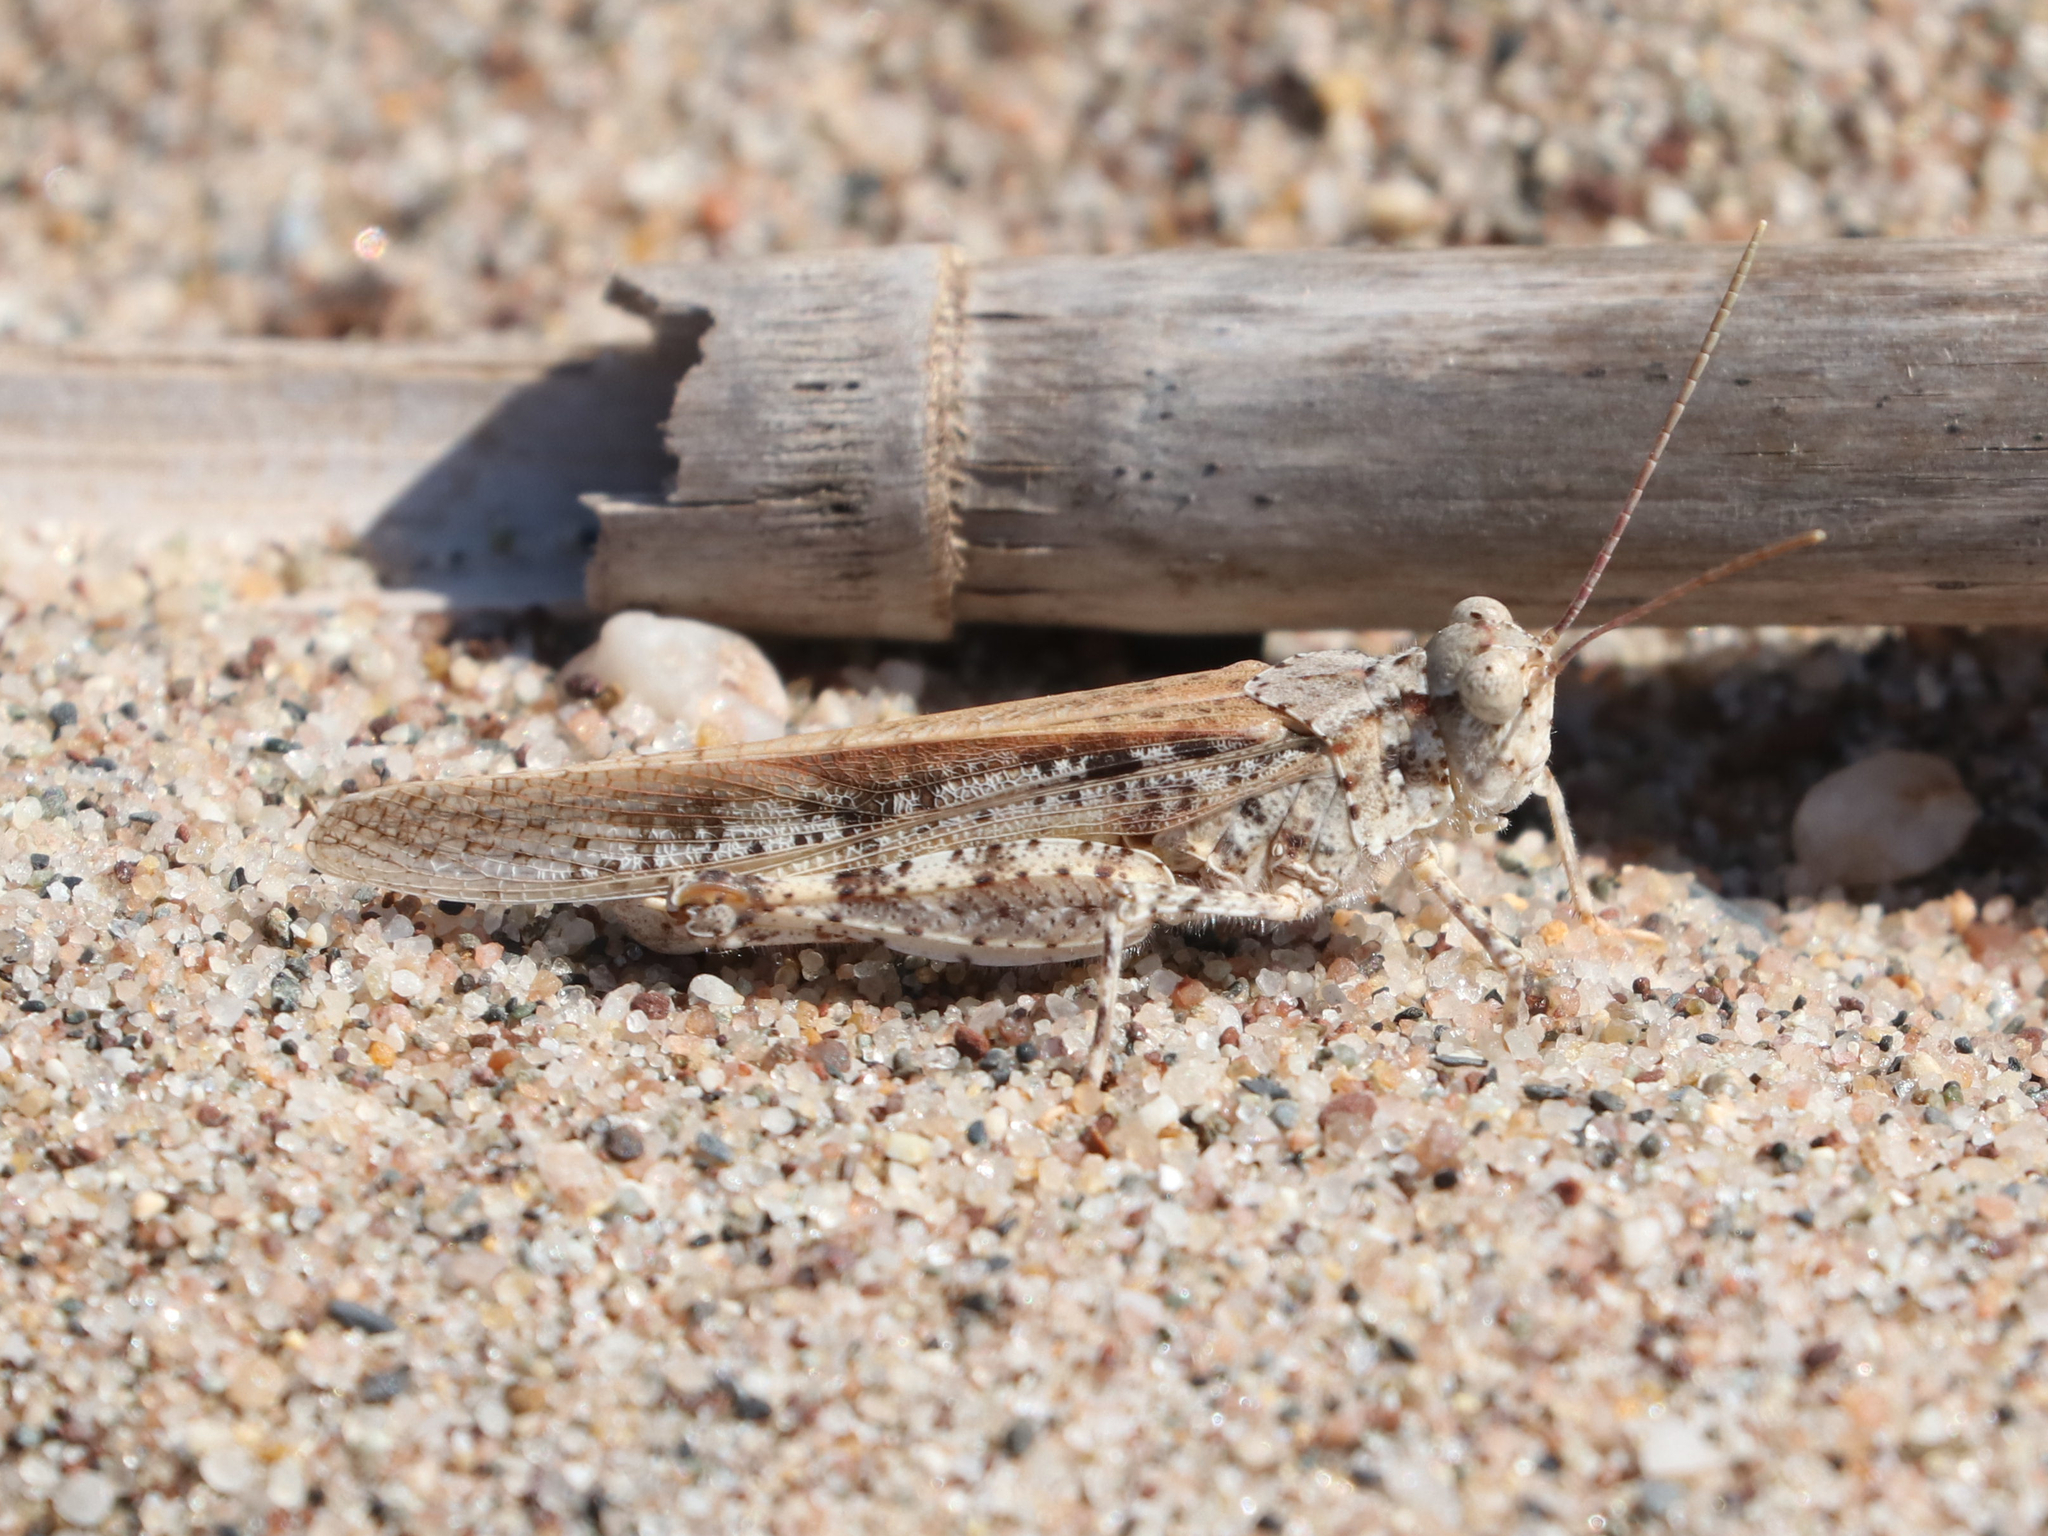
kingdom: Animalia
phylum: Arthropoda
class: Insecta
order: Orthoptera
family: Acrididae
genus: Trimerotropis
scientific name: Trimerotropis maritima
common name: Seaside locust
